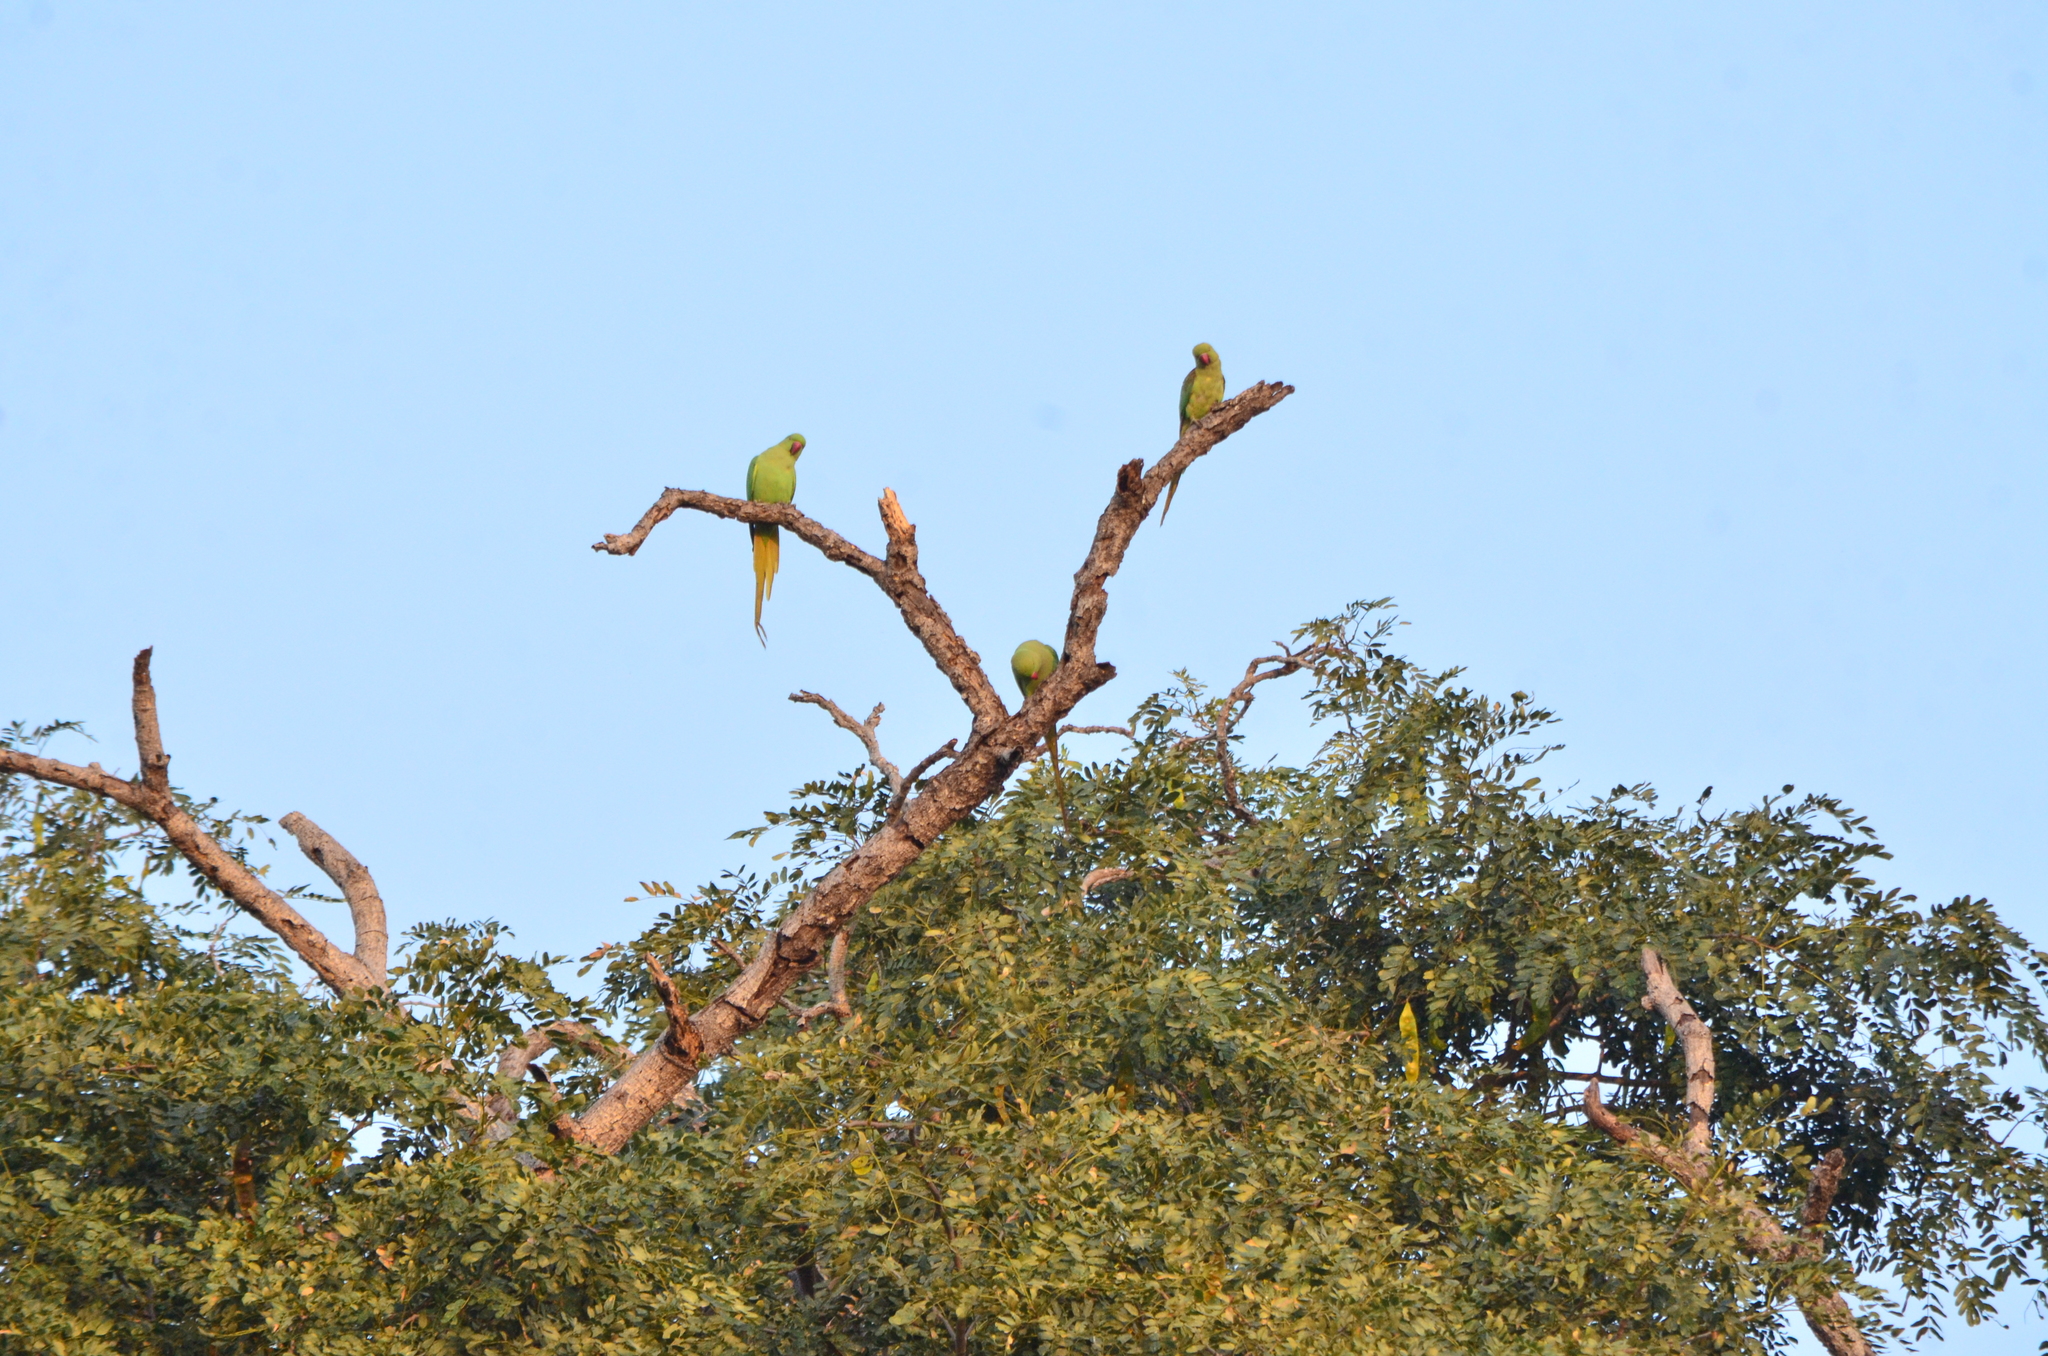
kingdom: Animalia
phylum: Chordata
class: Aves
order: Psittaciformes
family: Psittacidae
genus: Psittacula
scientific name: Psittacula krameri
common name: Rose-ringed parakeet
